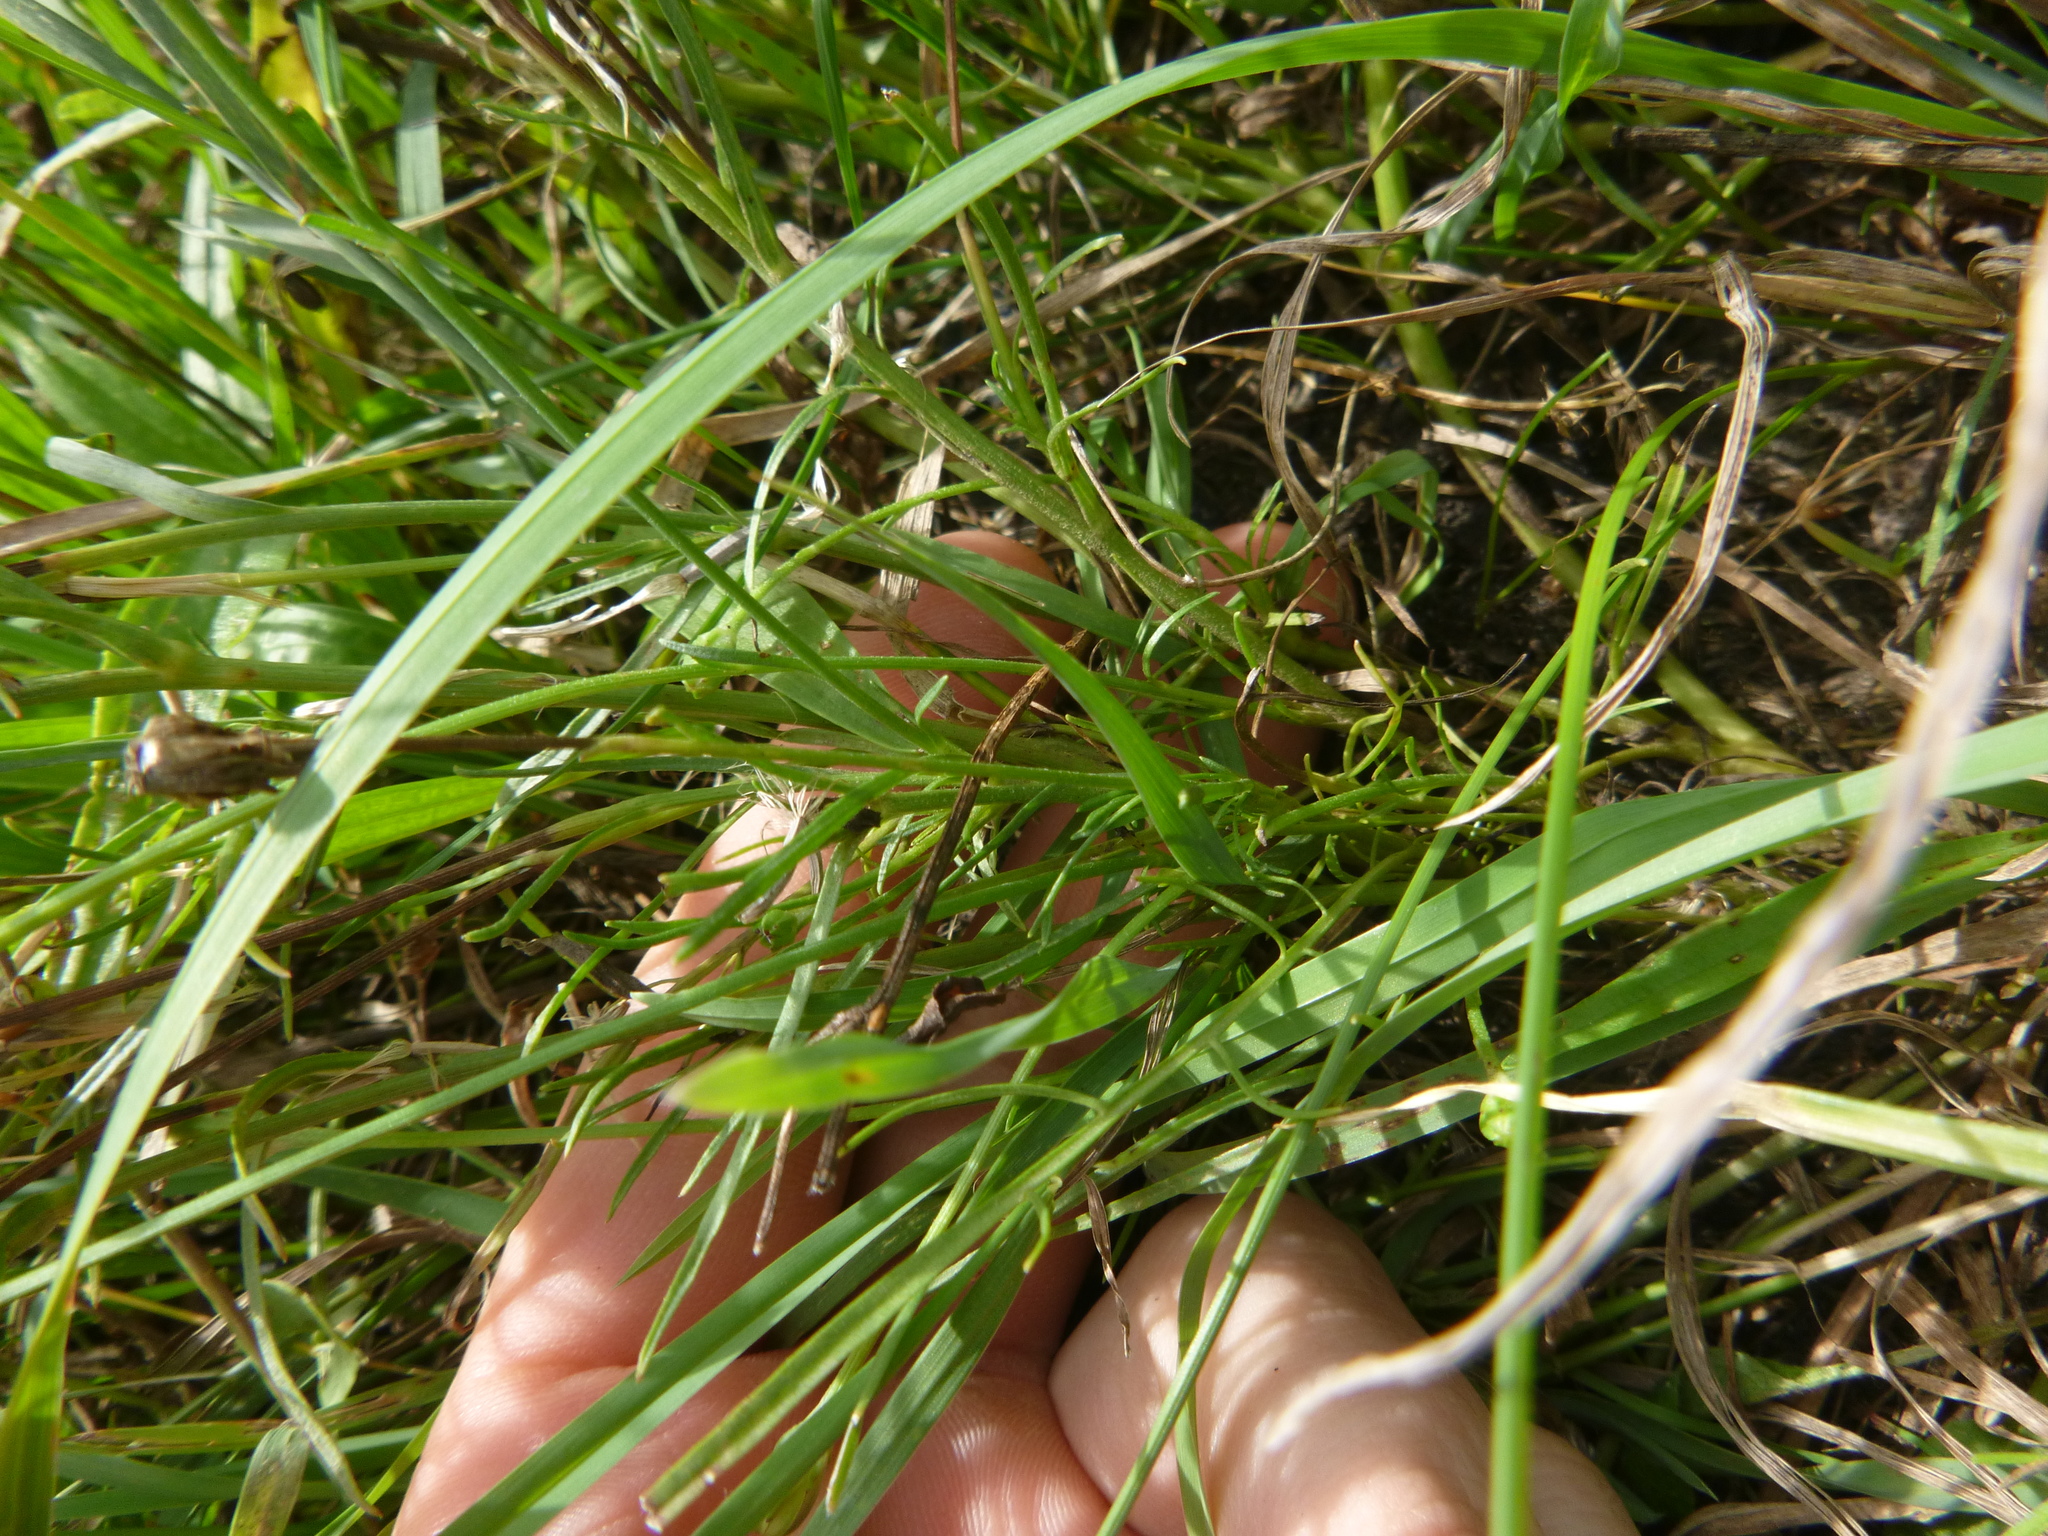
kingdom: Plantae
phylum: Tracheophyta
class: Magnoliopsida
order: Asterales
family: Asteraceae
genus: Scorzonera
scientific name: Scorzonera cana
